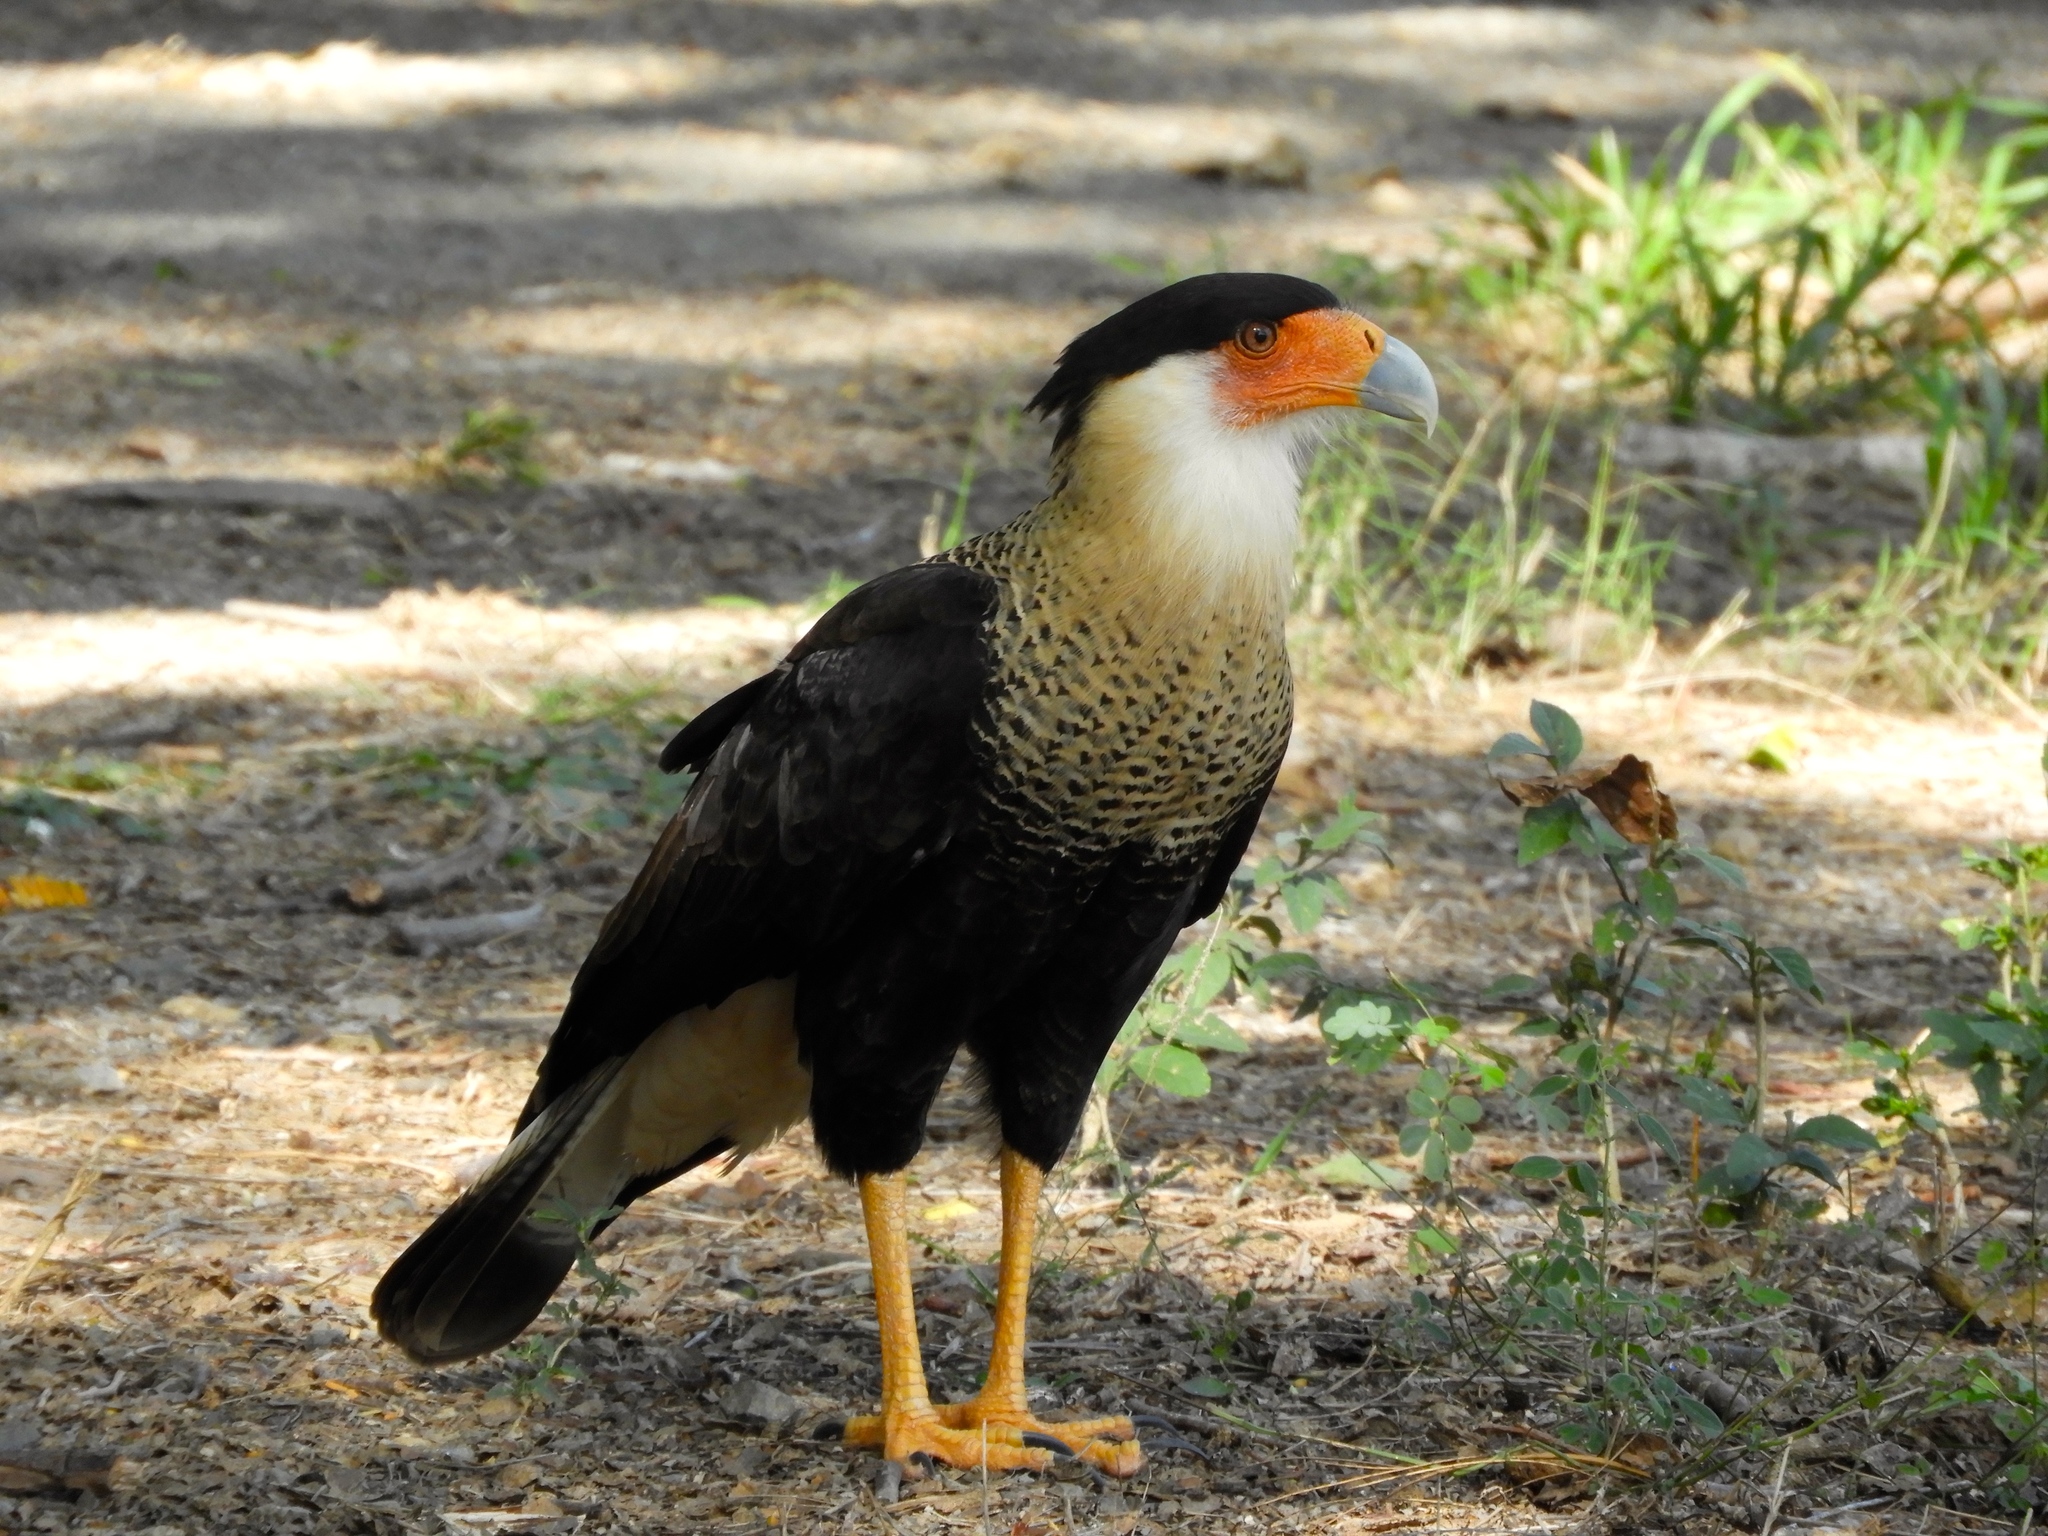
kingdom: Animalia
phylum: Chordata
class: Aves
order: Falconiformes
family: Falconidae
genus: Caracara
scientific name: Caracara plancus
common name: Southern caracara
